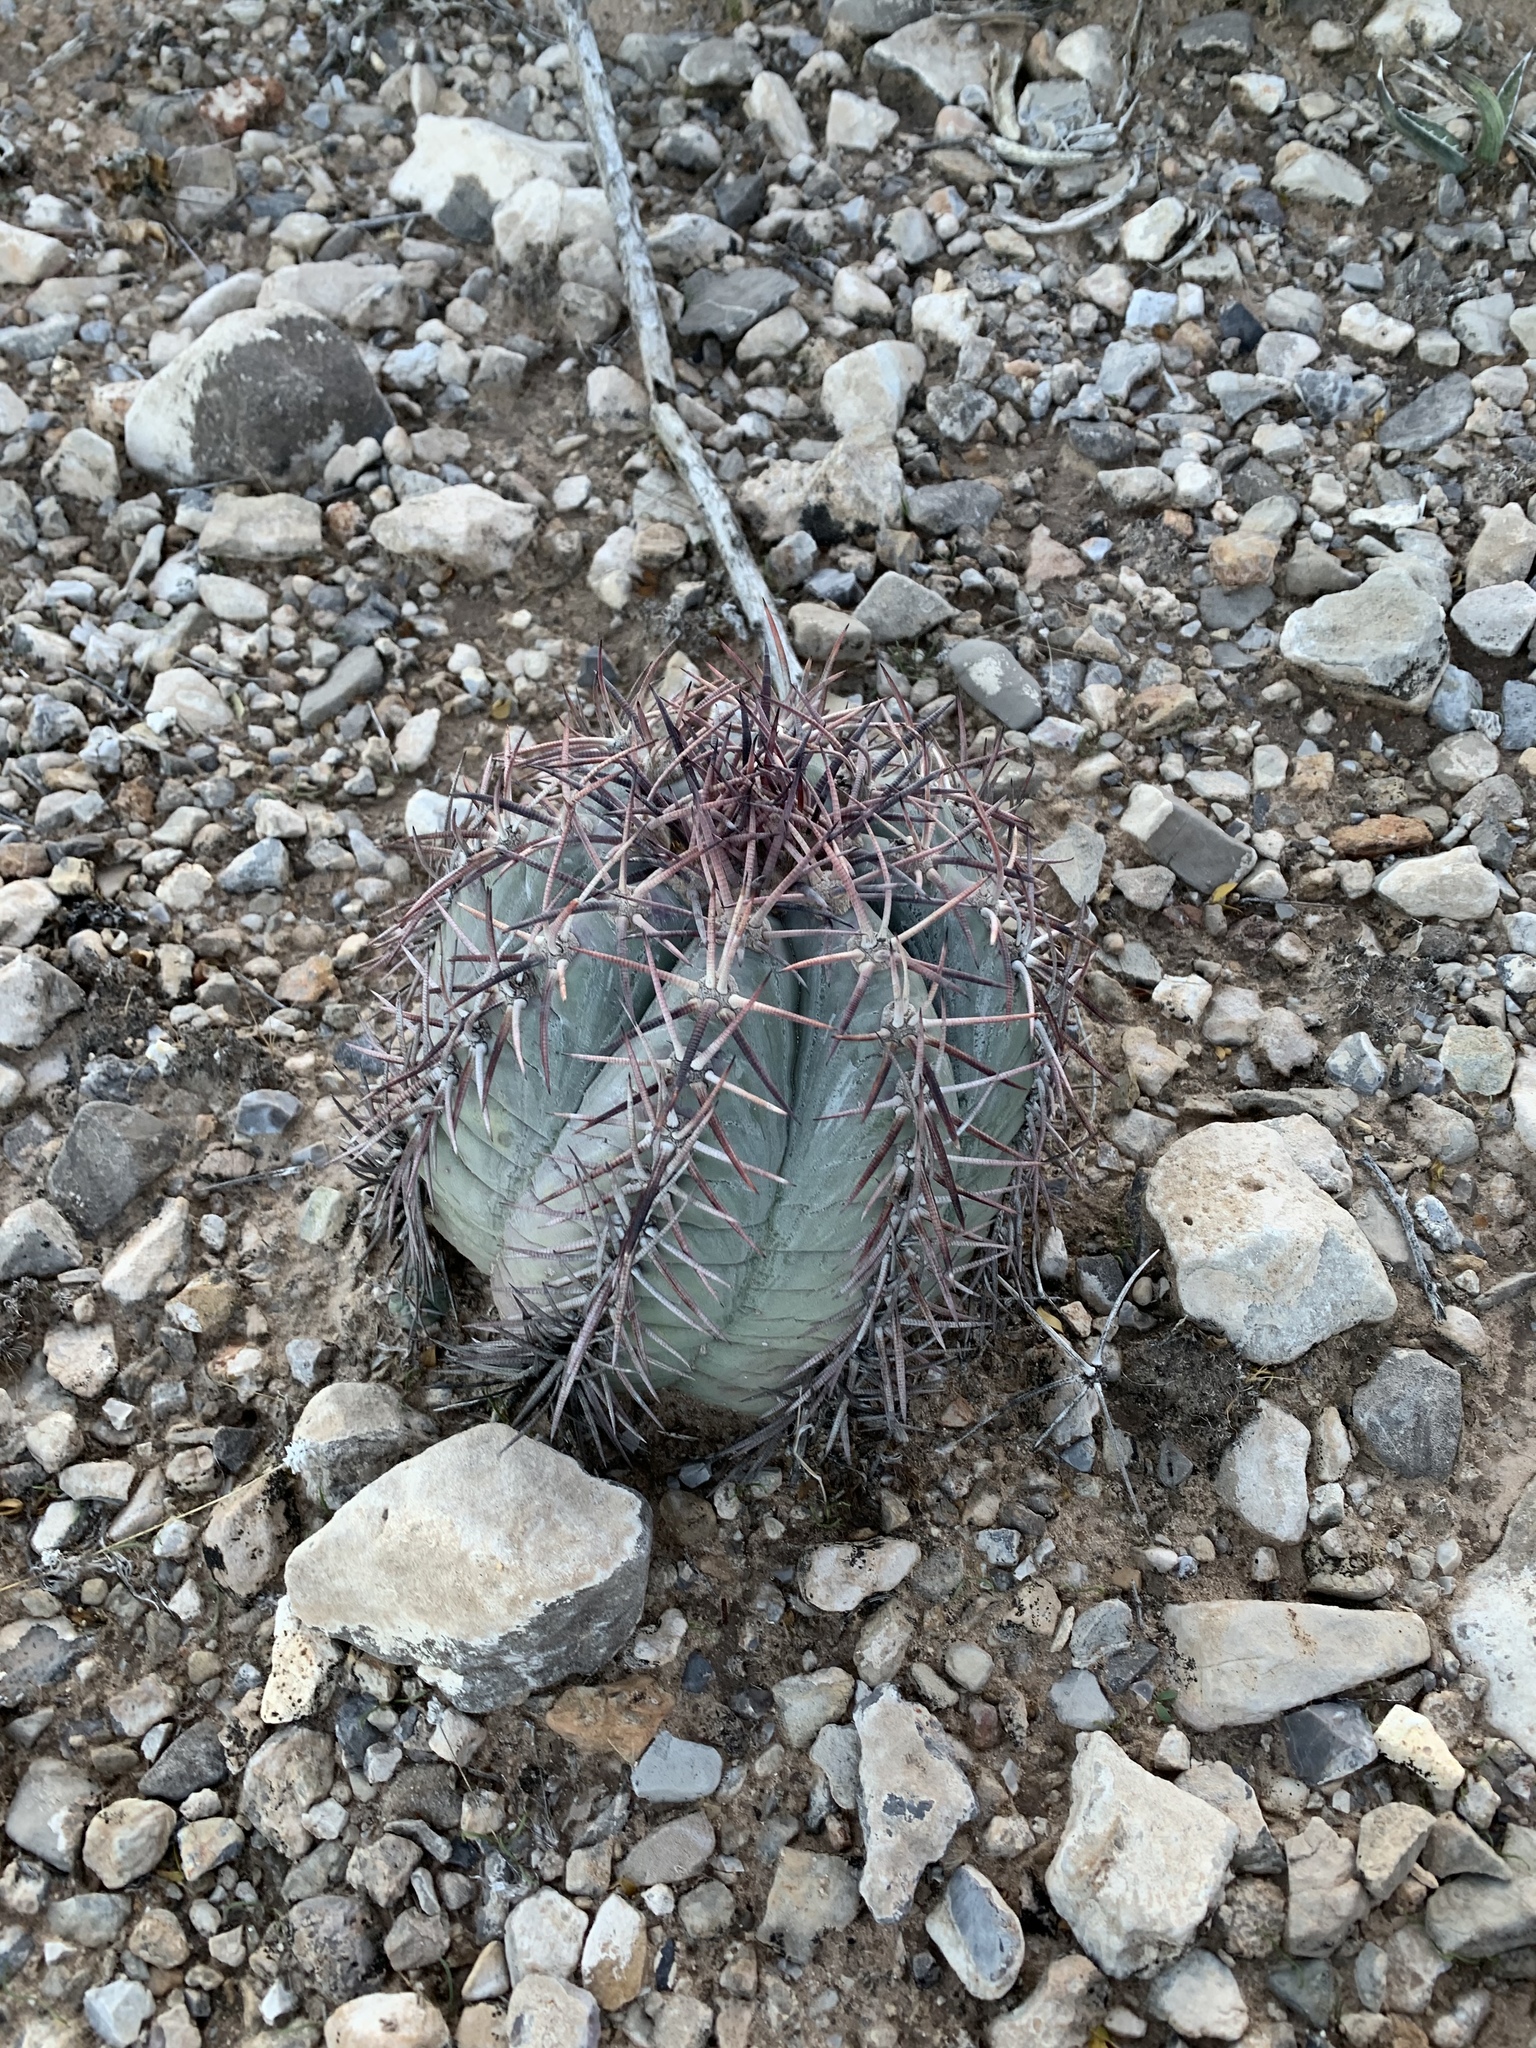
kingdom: Plantae
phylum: Tracheophyta
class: Magnoliopsida
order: Caryophyllales
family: Cactaceae
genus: Echinocactus
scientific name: Echinocactus horizonthalonius
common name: Devilshead
